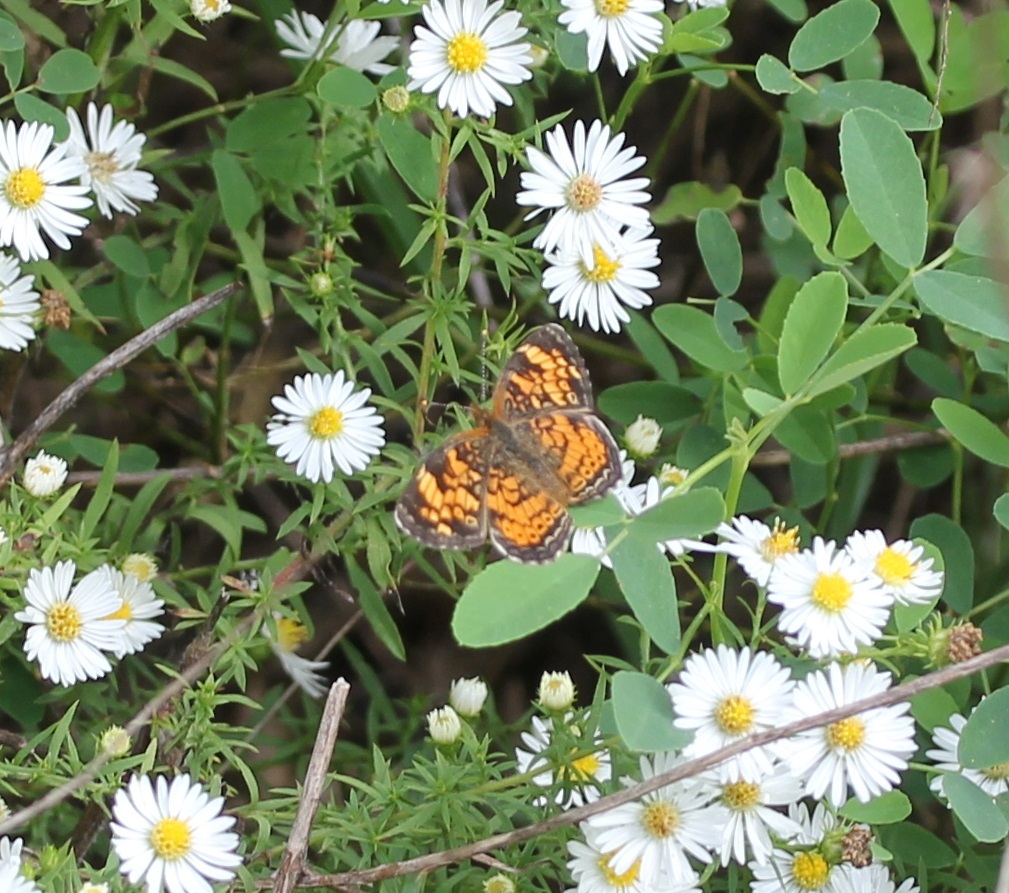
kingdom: Animalia
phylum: Arthropoda
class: Insecta
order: Lepidoptera
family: Nymphalidae
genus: Phyciodes
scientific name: Phyciodes tharos
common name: Pearl crescent
